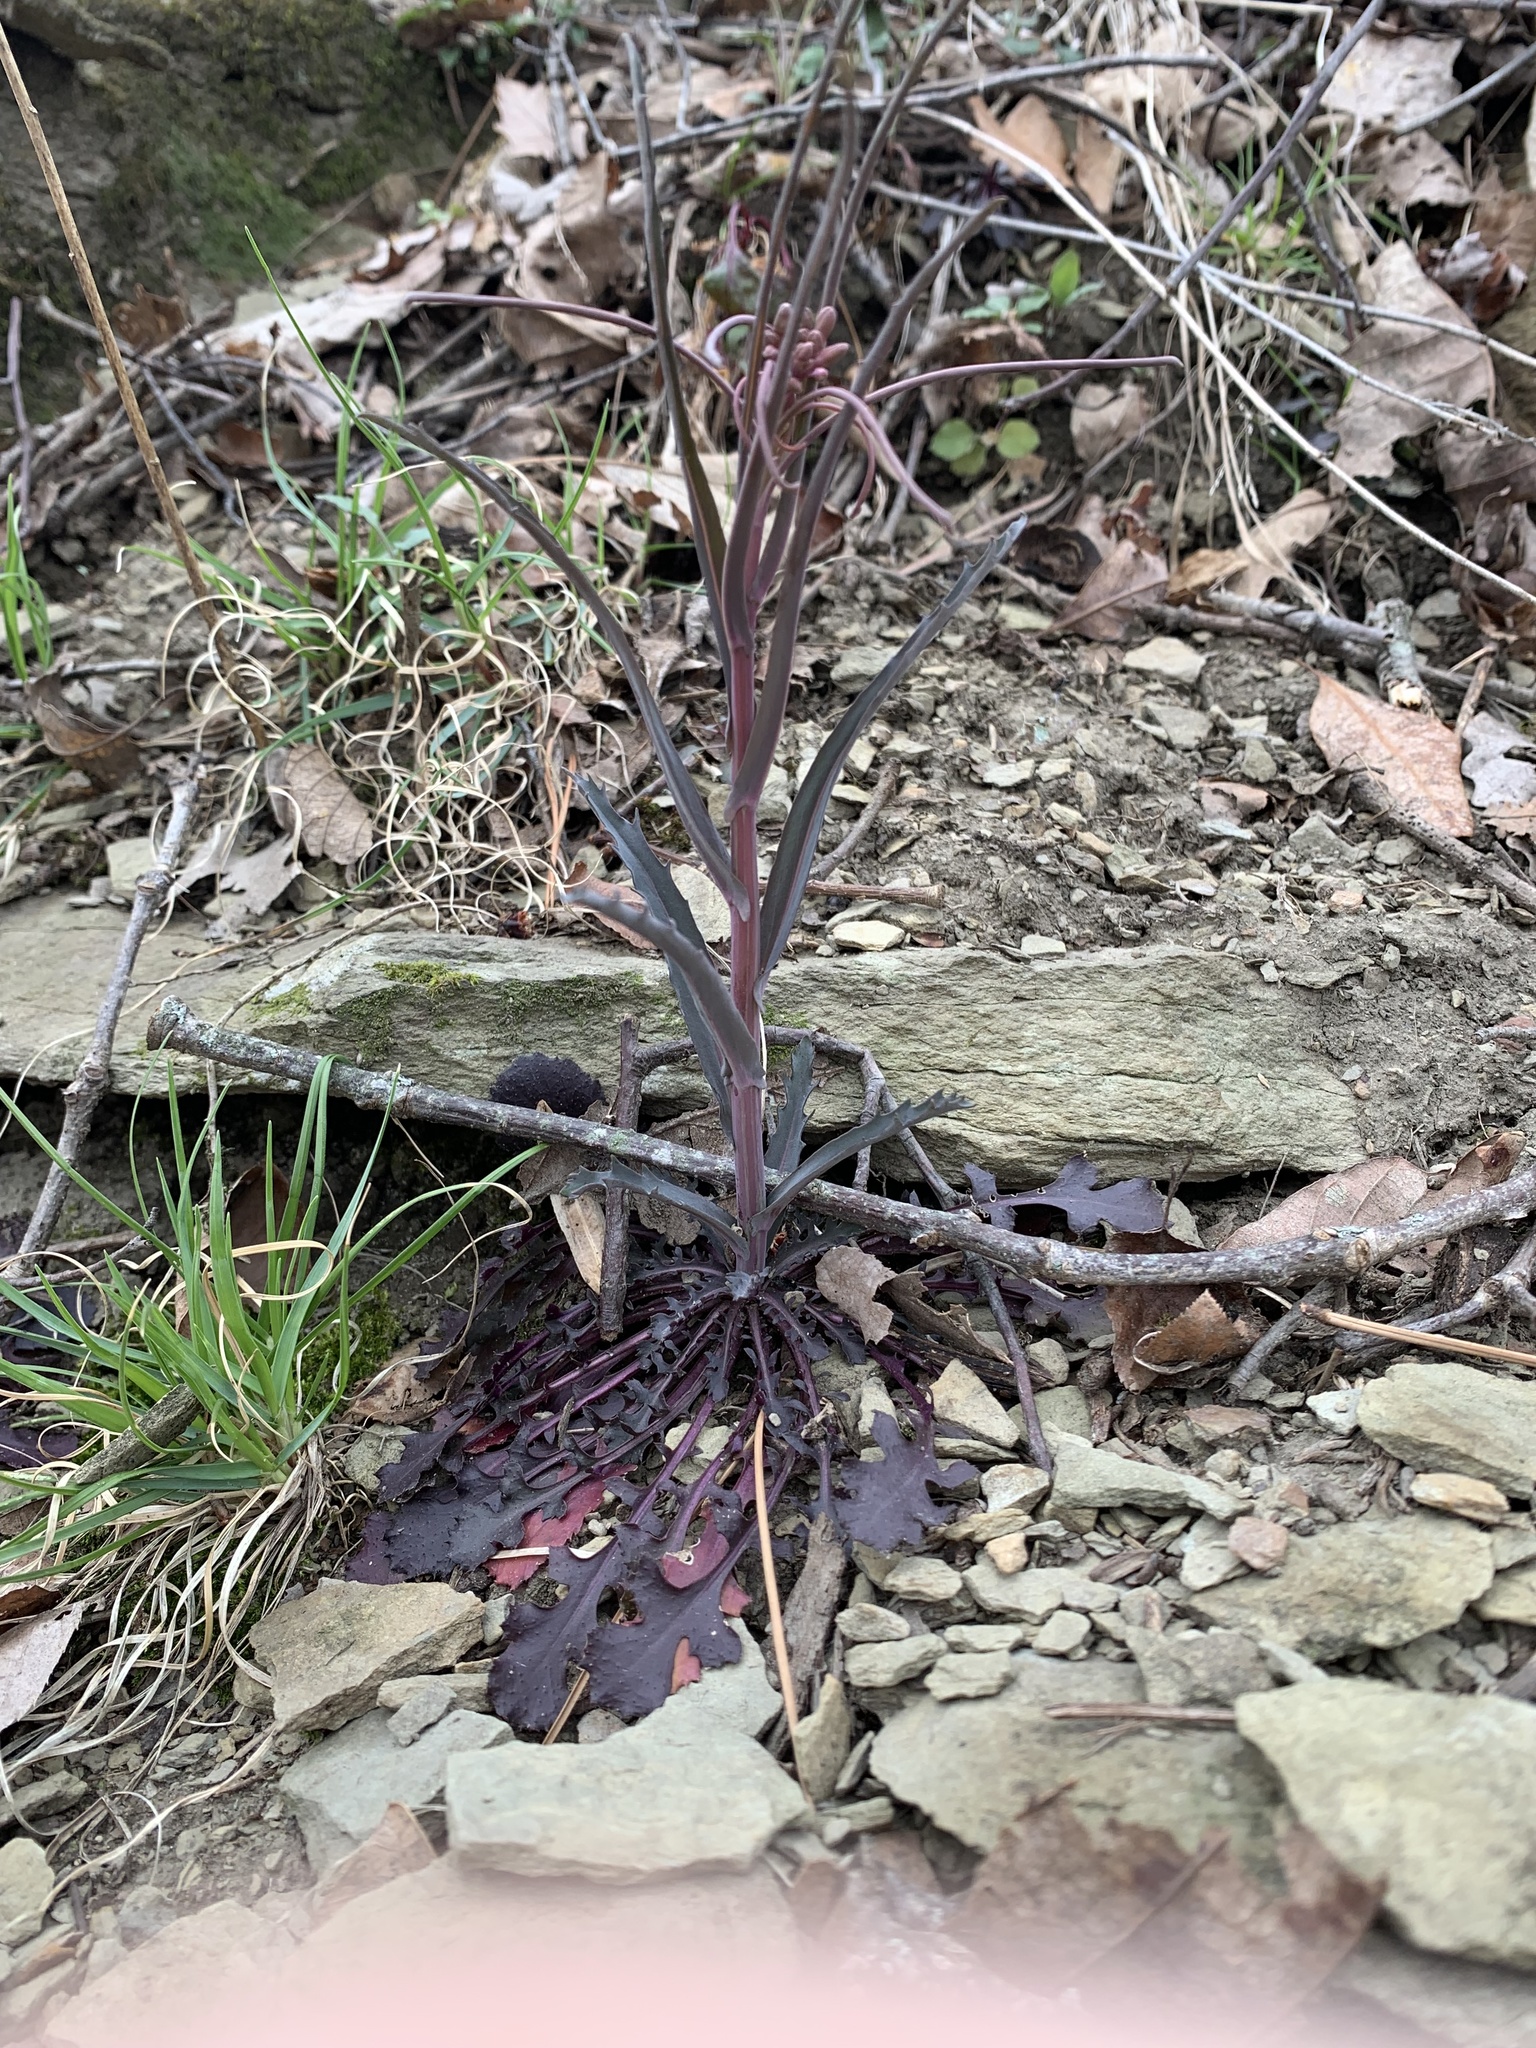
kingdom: Plantae
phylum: Tracheophyta
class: Magnoliopsida
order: Brassicales
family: Brassicaceae
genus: Borodinia
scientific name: Borodinia laevigata
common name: Smooth rockcress
